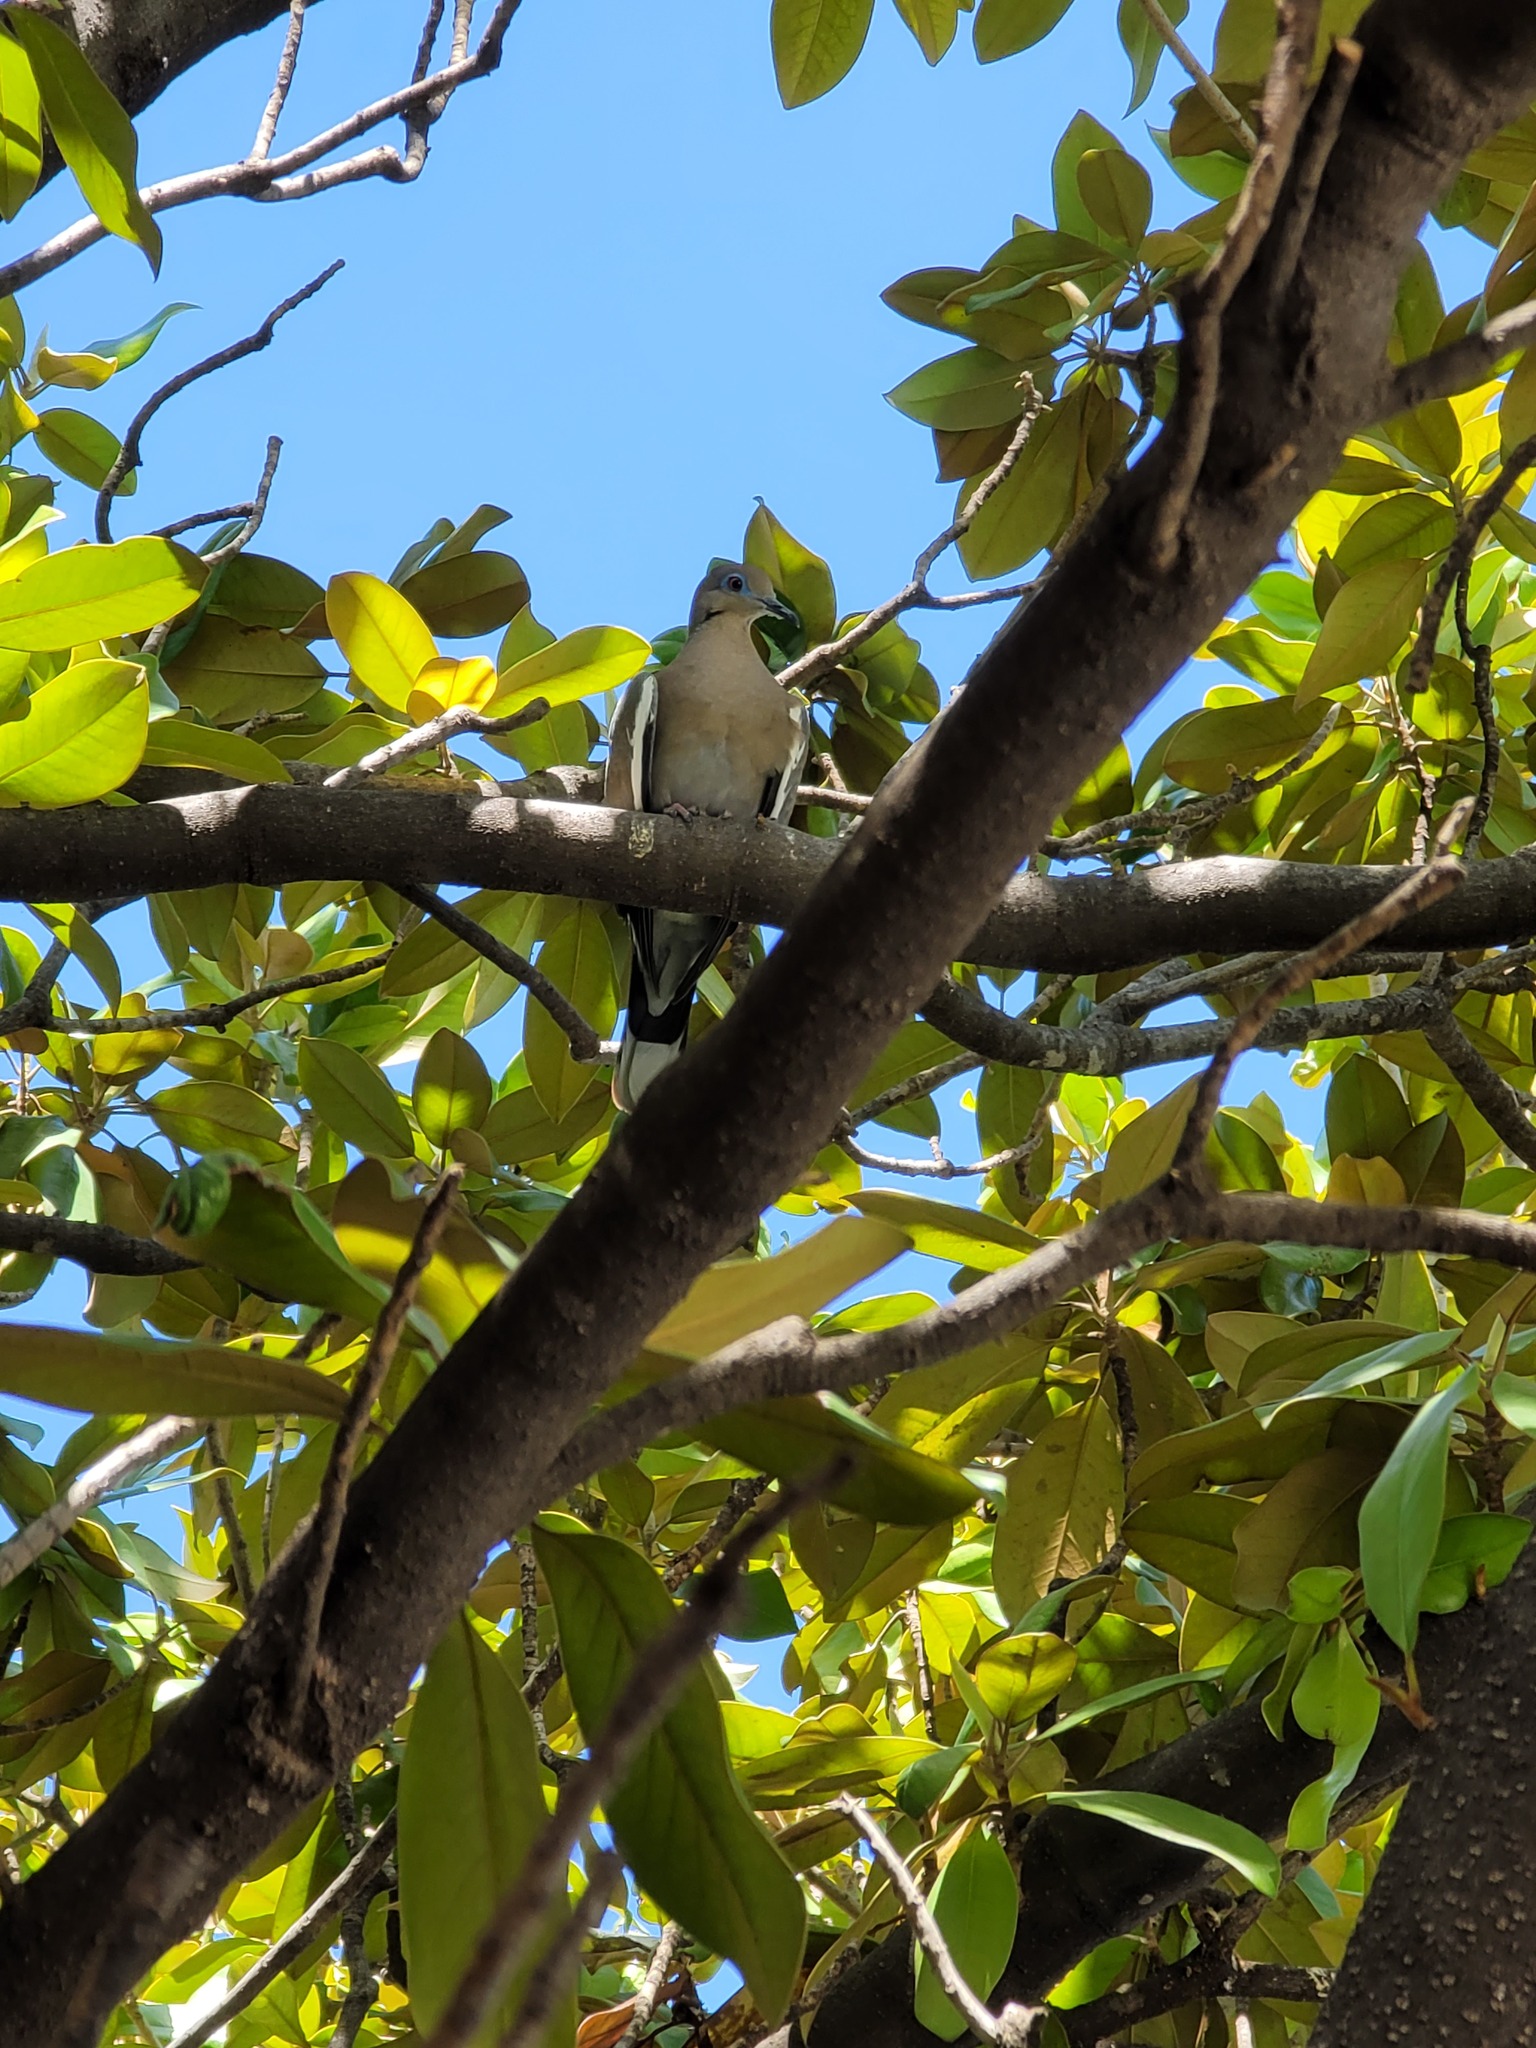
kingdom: Animalia
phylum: Chordata
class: Aves
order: Columbiformes
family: Columbidae
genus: Zenaida
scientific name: Zenaida asiatica
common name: White-winged dove
